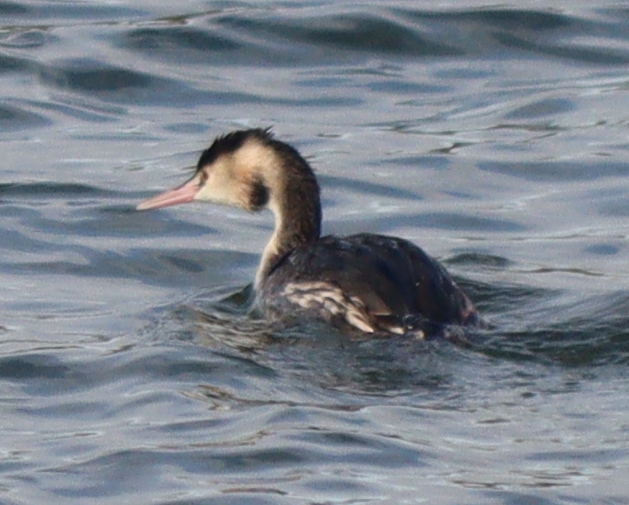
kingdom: Animalia
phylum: Chordata
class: Aves
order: Podicipediformes
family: Podicipedidae
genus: Podiceps
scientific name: Podiceps cristatus
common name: Great crested grebe
